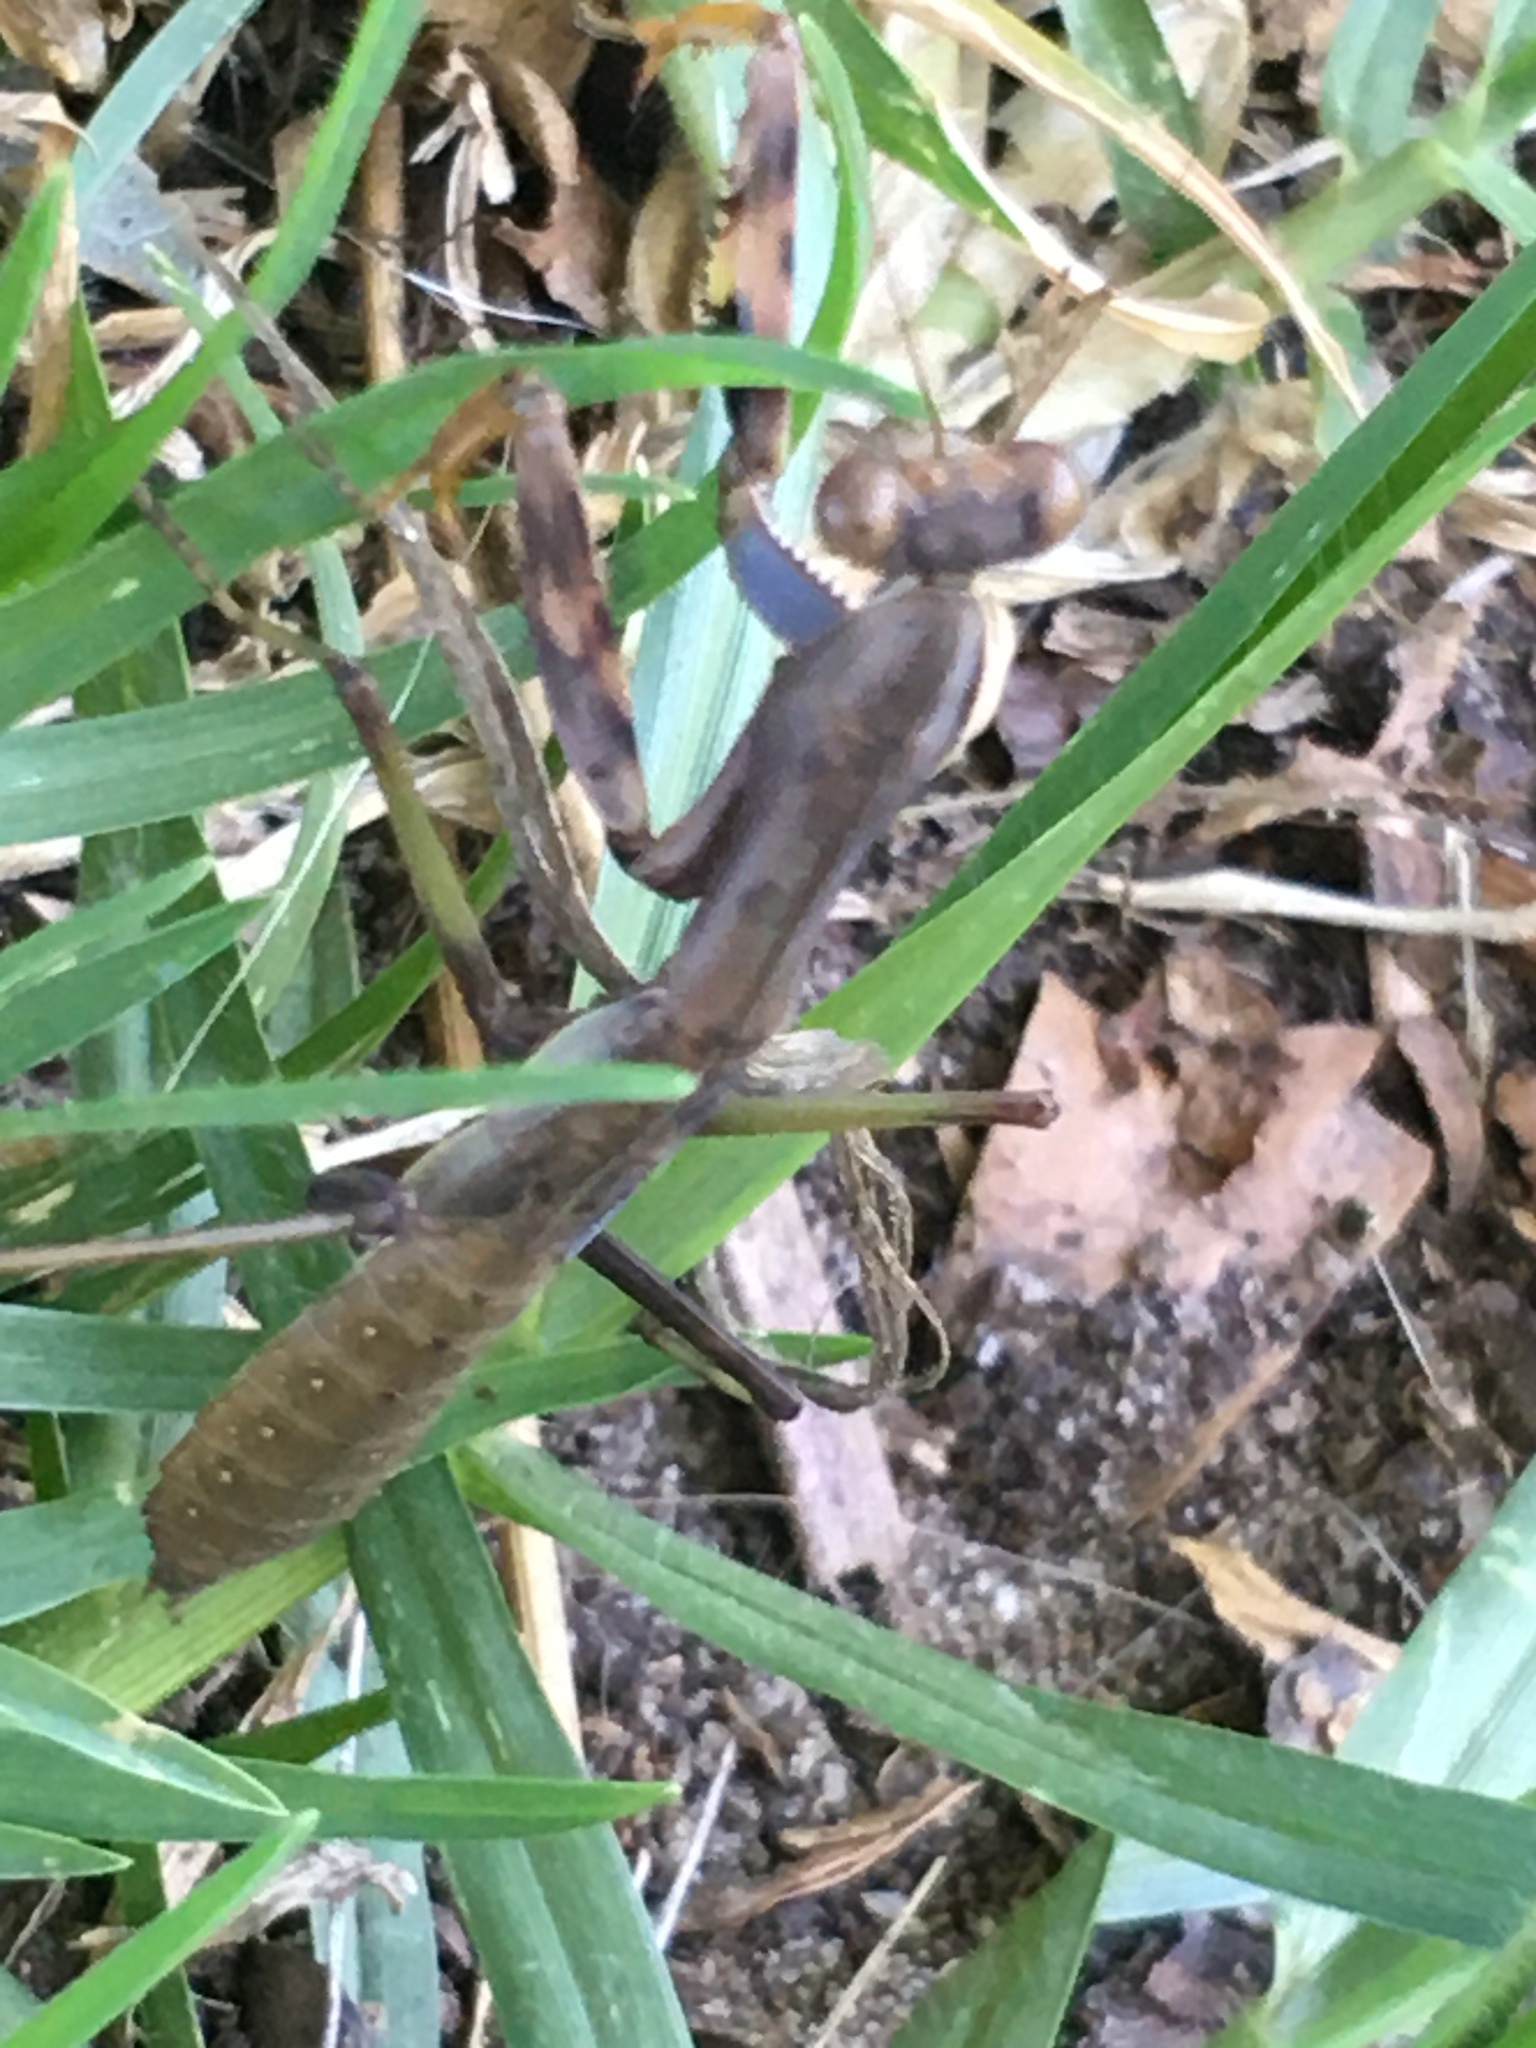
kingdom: Animalia
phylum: Arthropoda
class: Insecta
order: Mantodea
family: Mantidae
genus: Polyspilota
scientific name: Polyspilota
